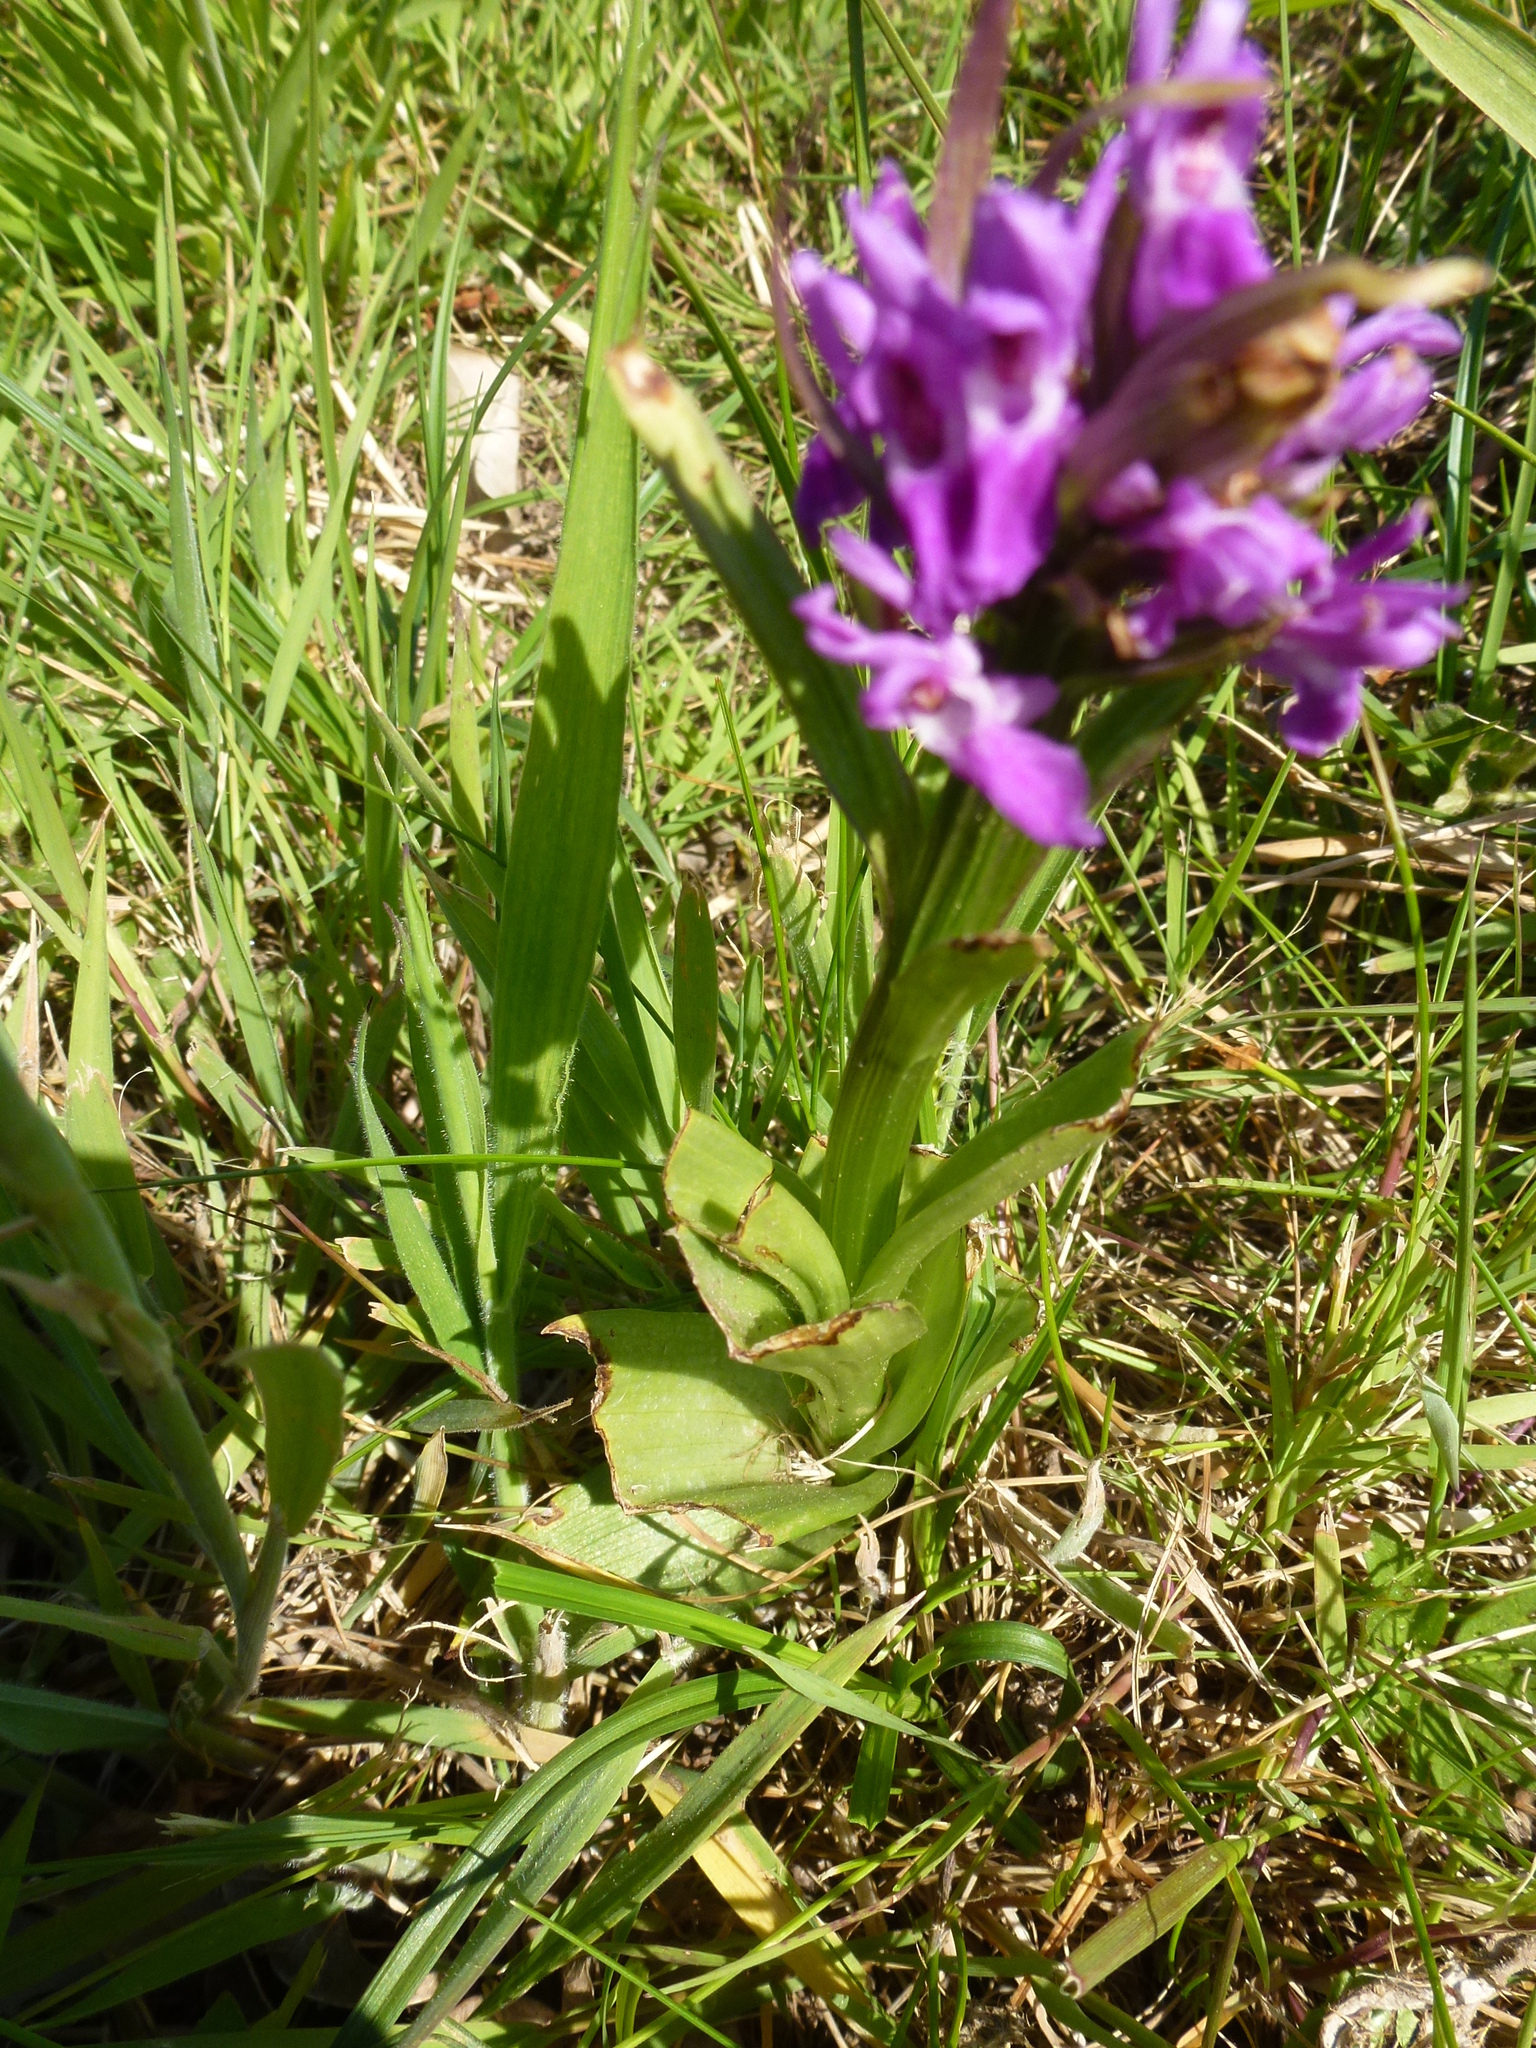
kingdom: Plantae
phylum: Tracheophyta
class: Liliopsida
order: Asparagales
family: Orchidaceae
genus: Dactylorhiza
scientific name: Dactylorhiza majalis
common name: Marsh orchid
